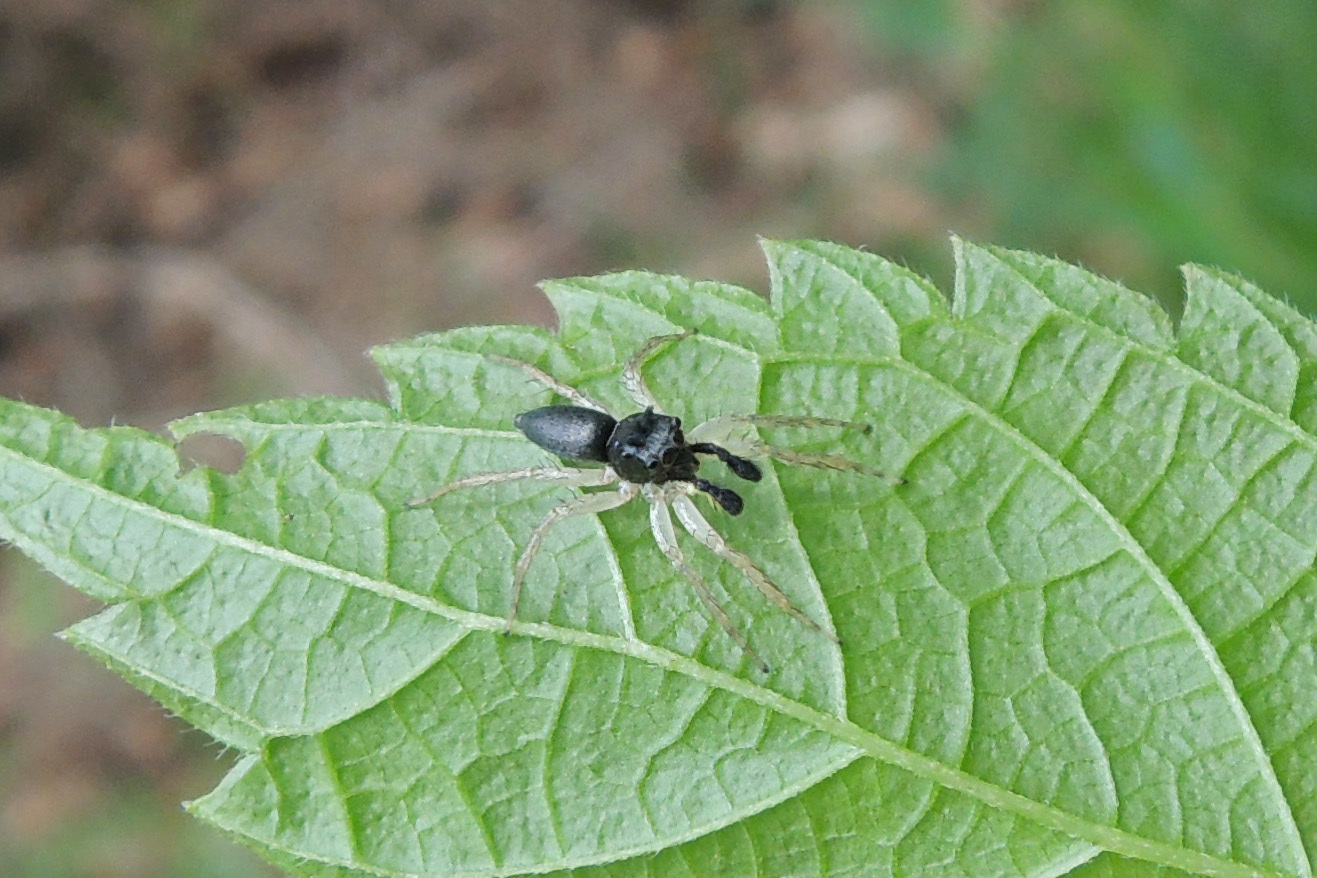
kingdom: Animalia
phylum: Arthropoda
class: Arachnida
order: Araneae
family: Salticidae
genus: Maevia
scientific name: Maevia inclemens
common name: Dimorphic jumper
